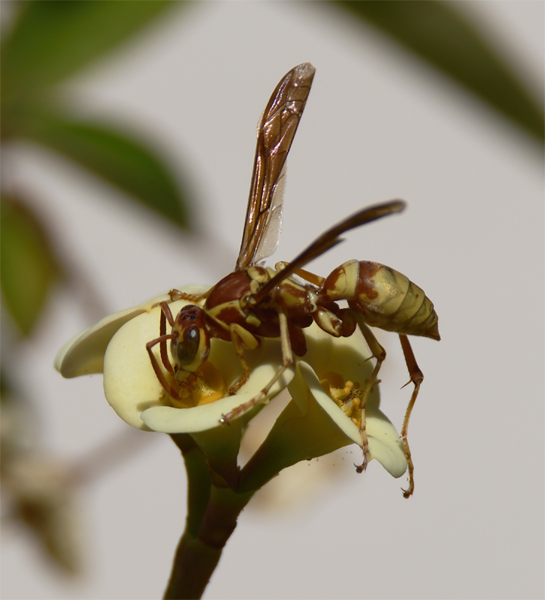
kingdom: Animalia
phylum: Arthropoda
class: Insecta
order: Hymenoptera
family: Eumenidae
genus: Polistes
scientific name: Polistes aurifer
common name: Paper wasp
